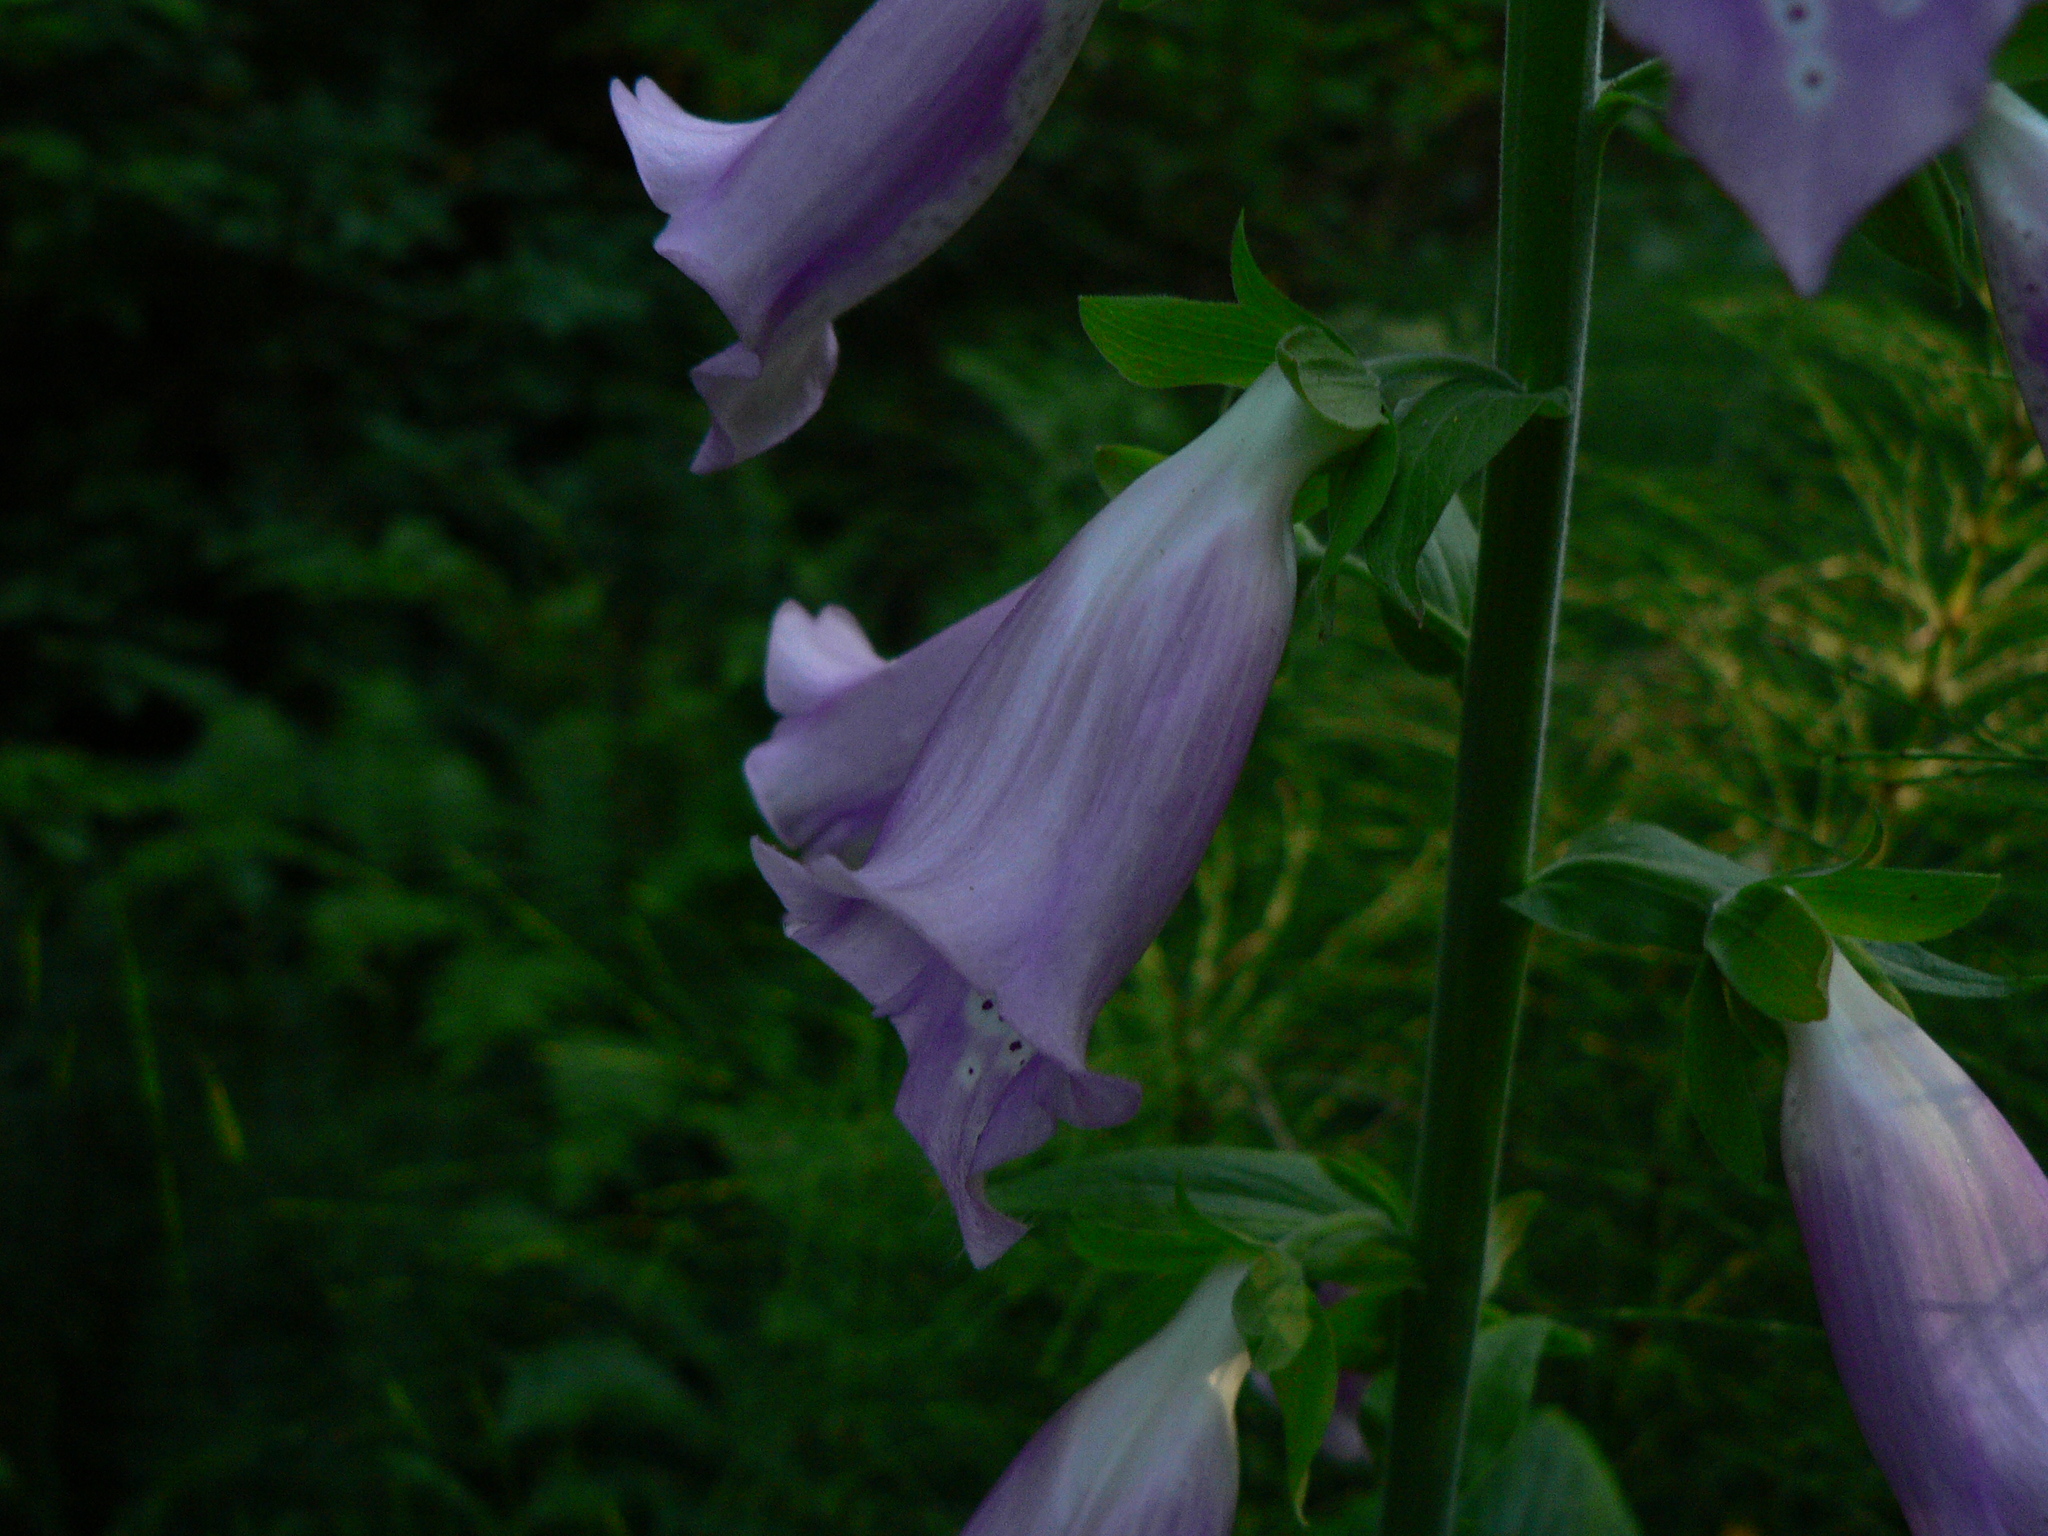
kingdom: Plantae
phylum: Tracheophyta
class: Magnoliopsida
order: Lamiales
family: Plantaginaceae
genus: Digitalis
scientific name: Digitalis purpurea
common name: Foxglove
